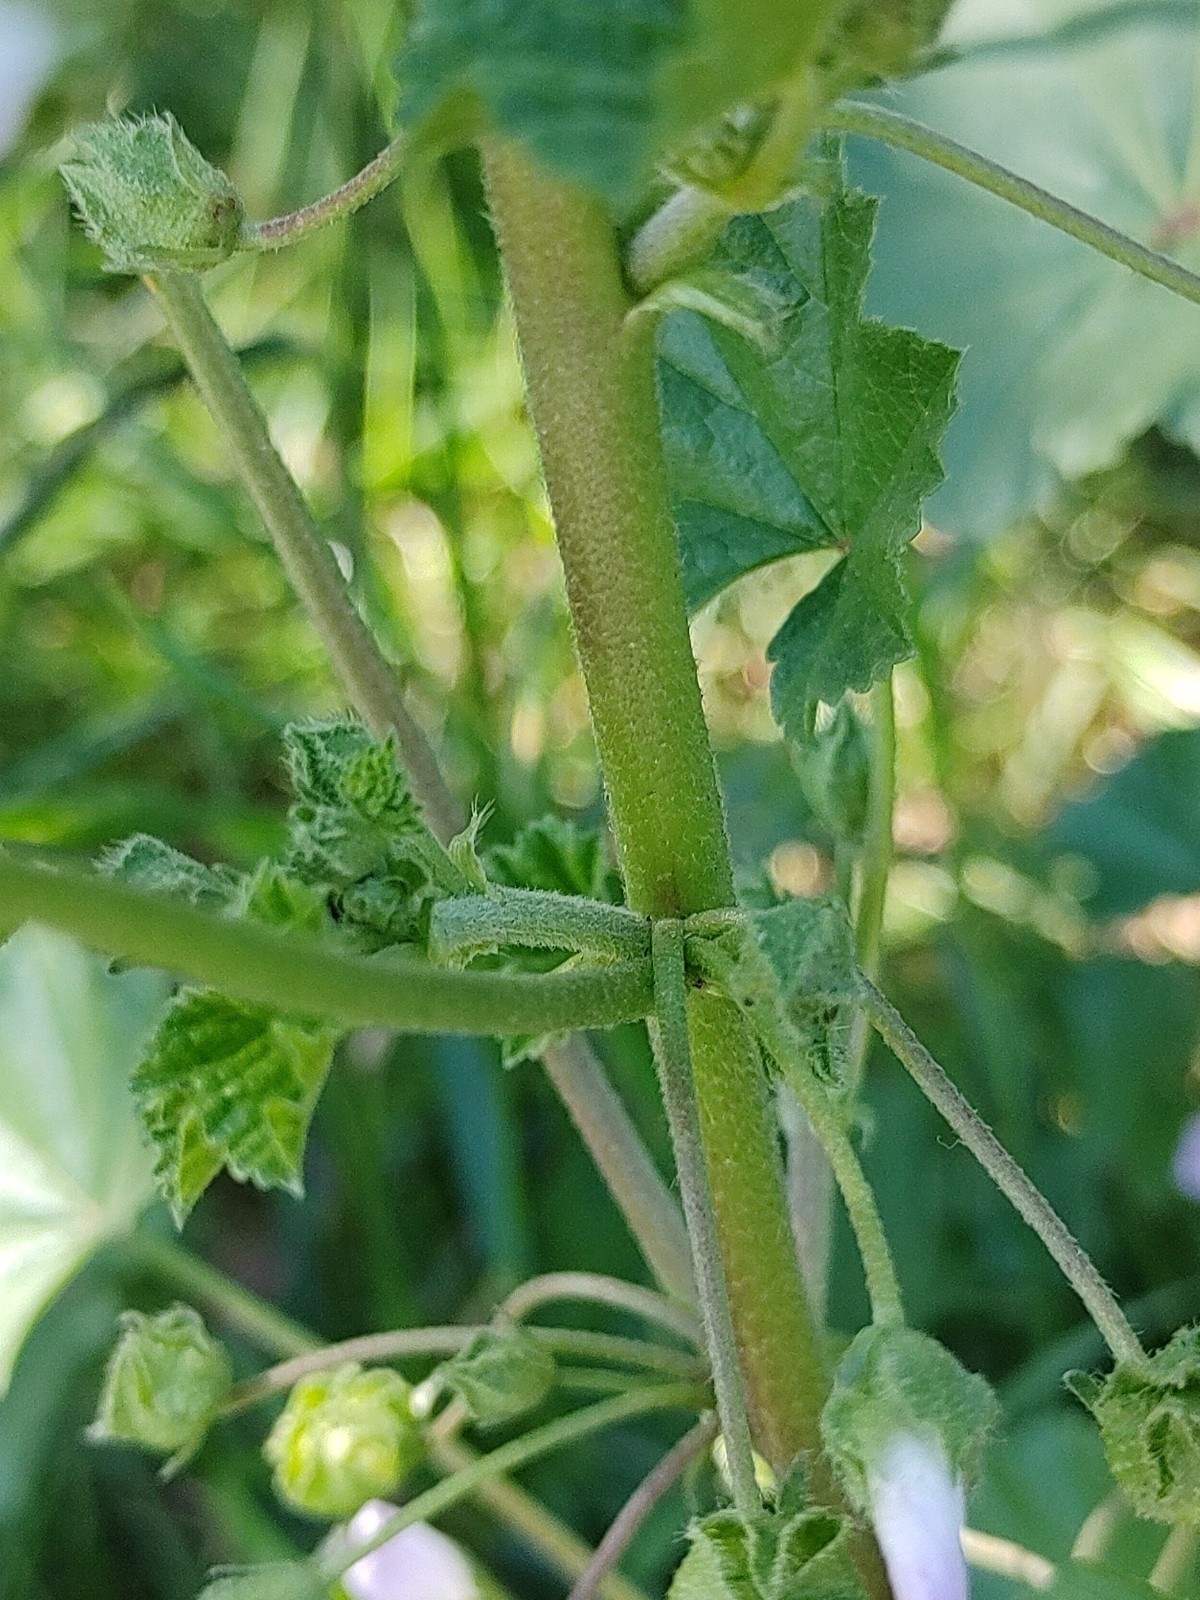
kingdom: Plantae
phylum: Tracheophyta
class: Magnoliopsida
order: Malvales
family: Malvaceae
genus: Malva
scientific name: Malva neglecta
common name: Common mallow
